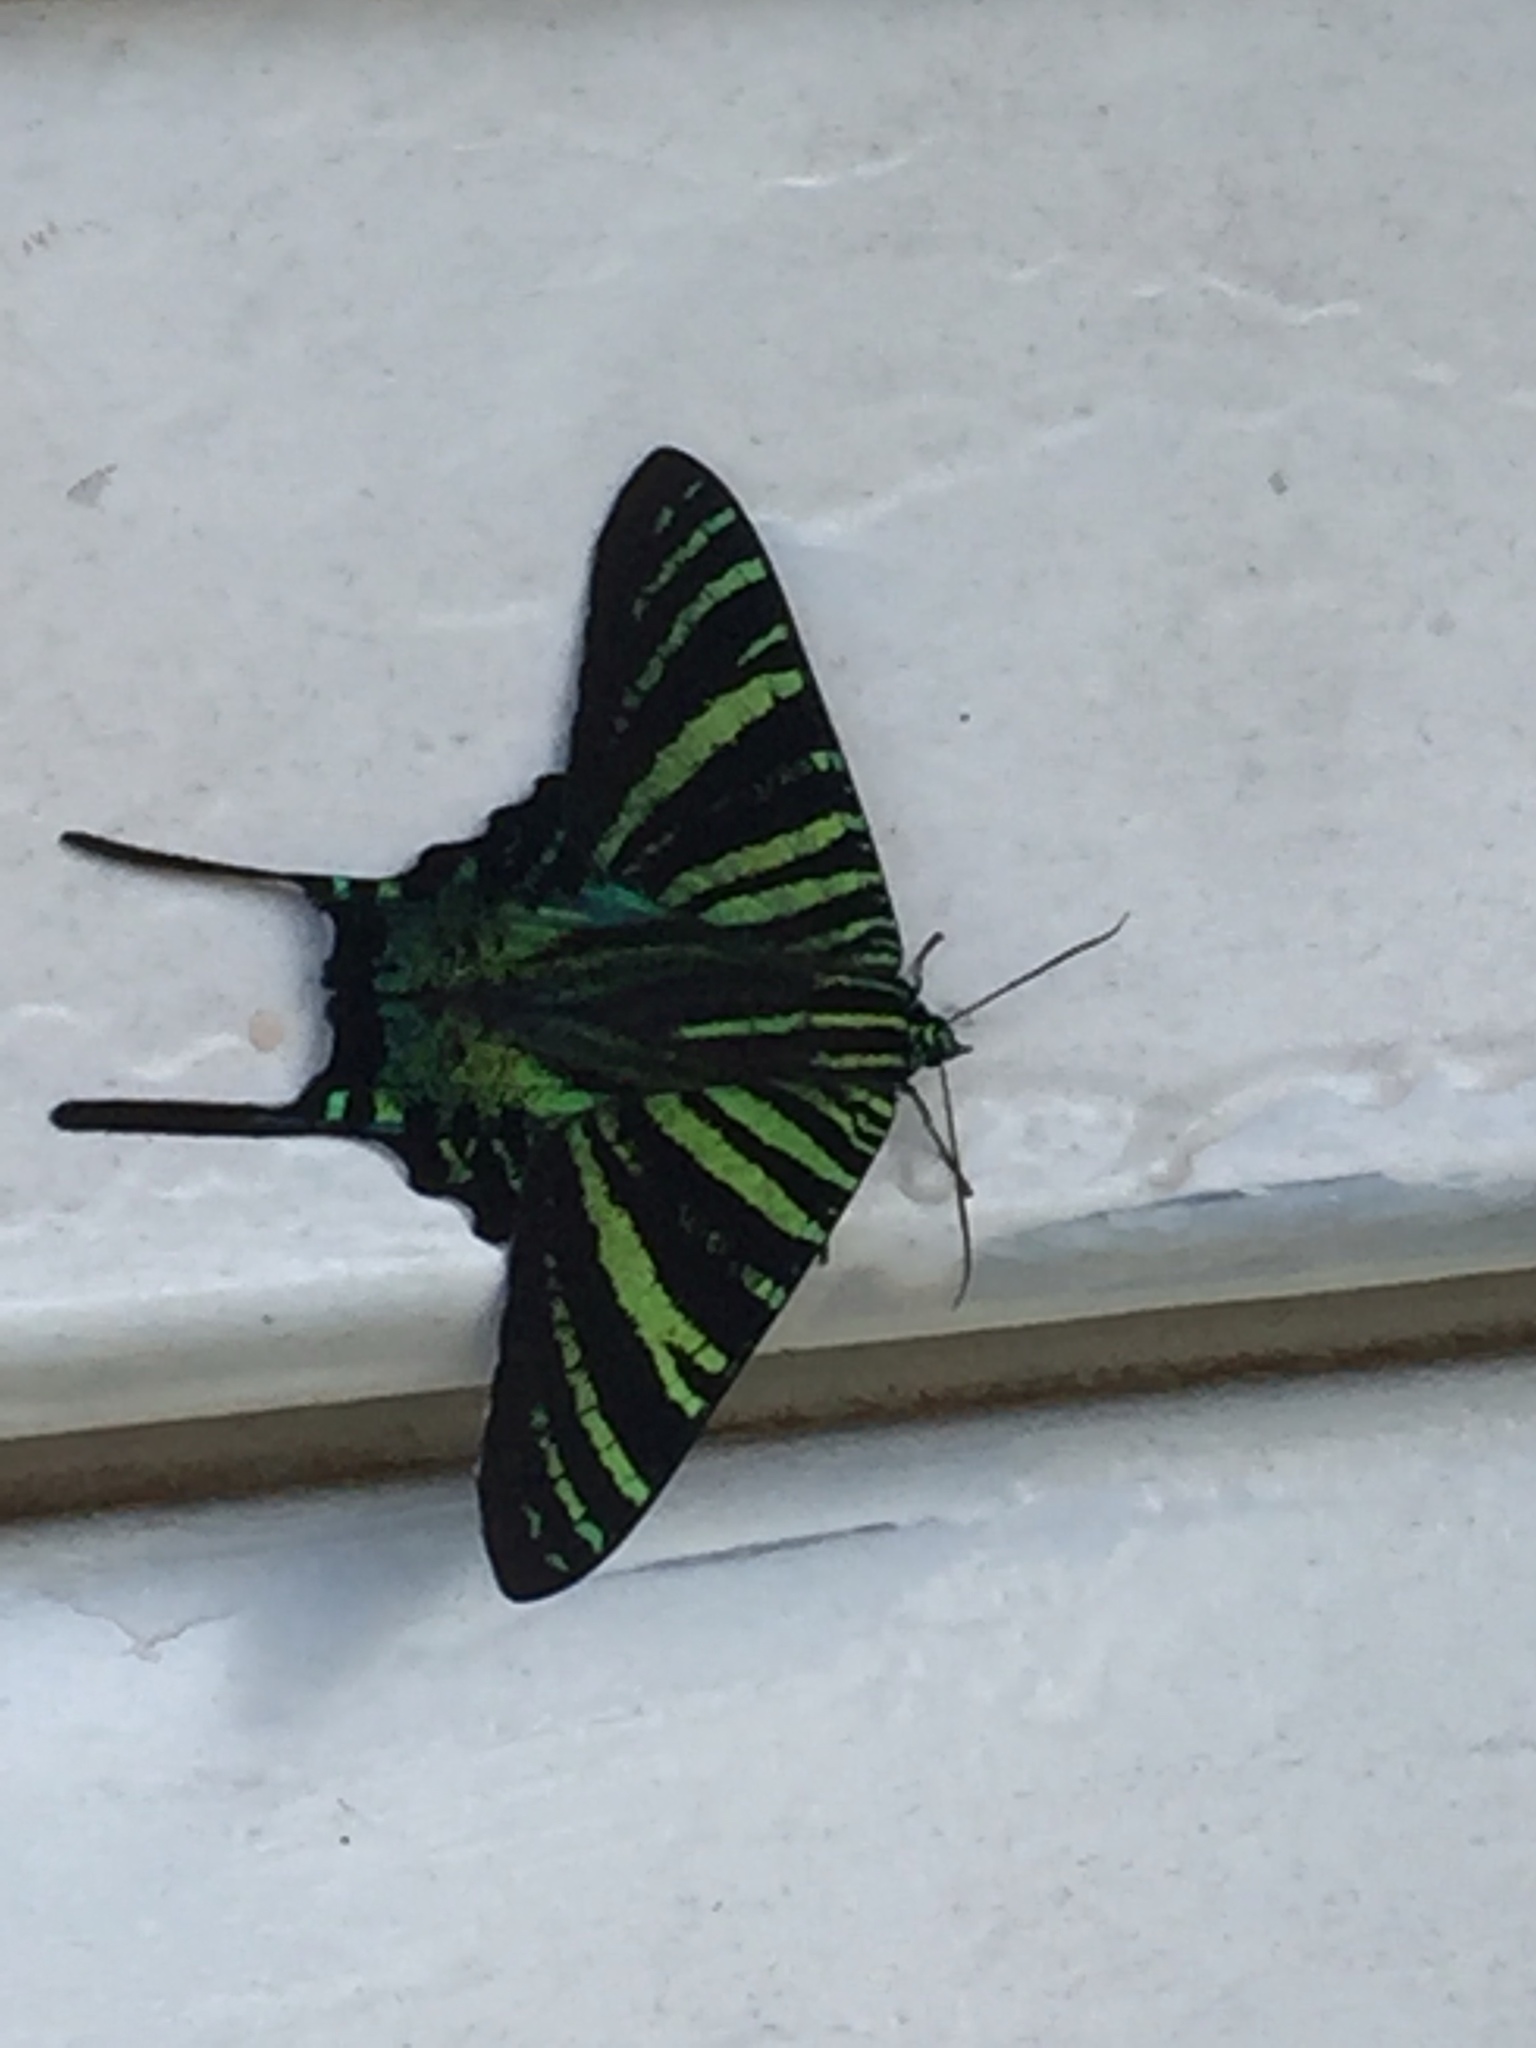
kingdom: Animalia
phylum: Arthropoda
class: Insecta
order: Lepidoptera
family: Uraniidae
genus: Urania
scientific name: Urania boisduvalii
